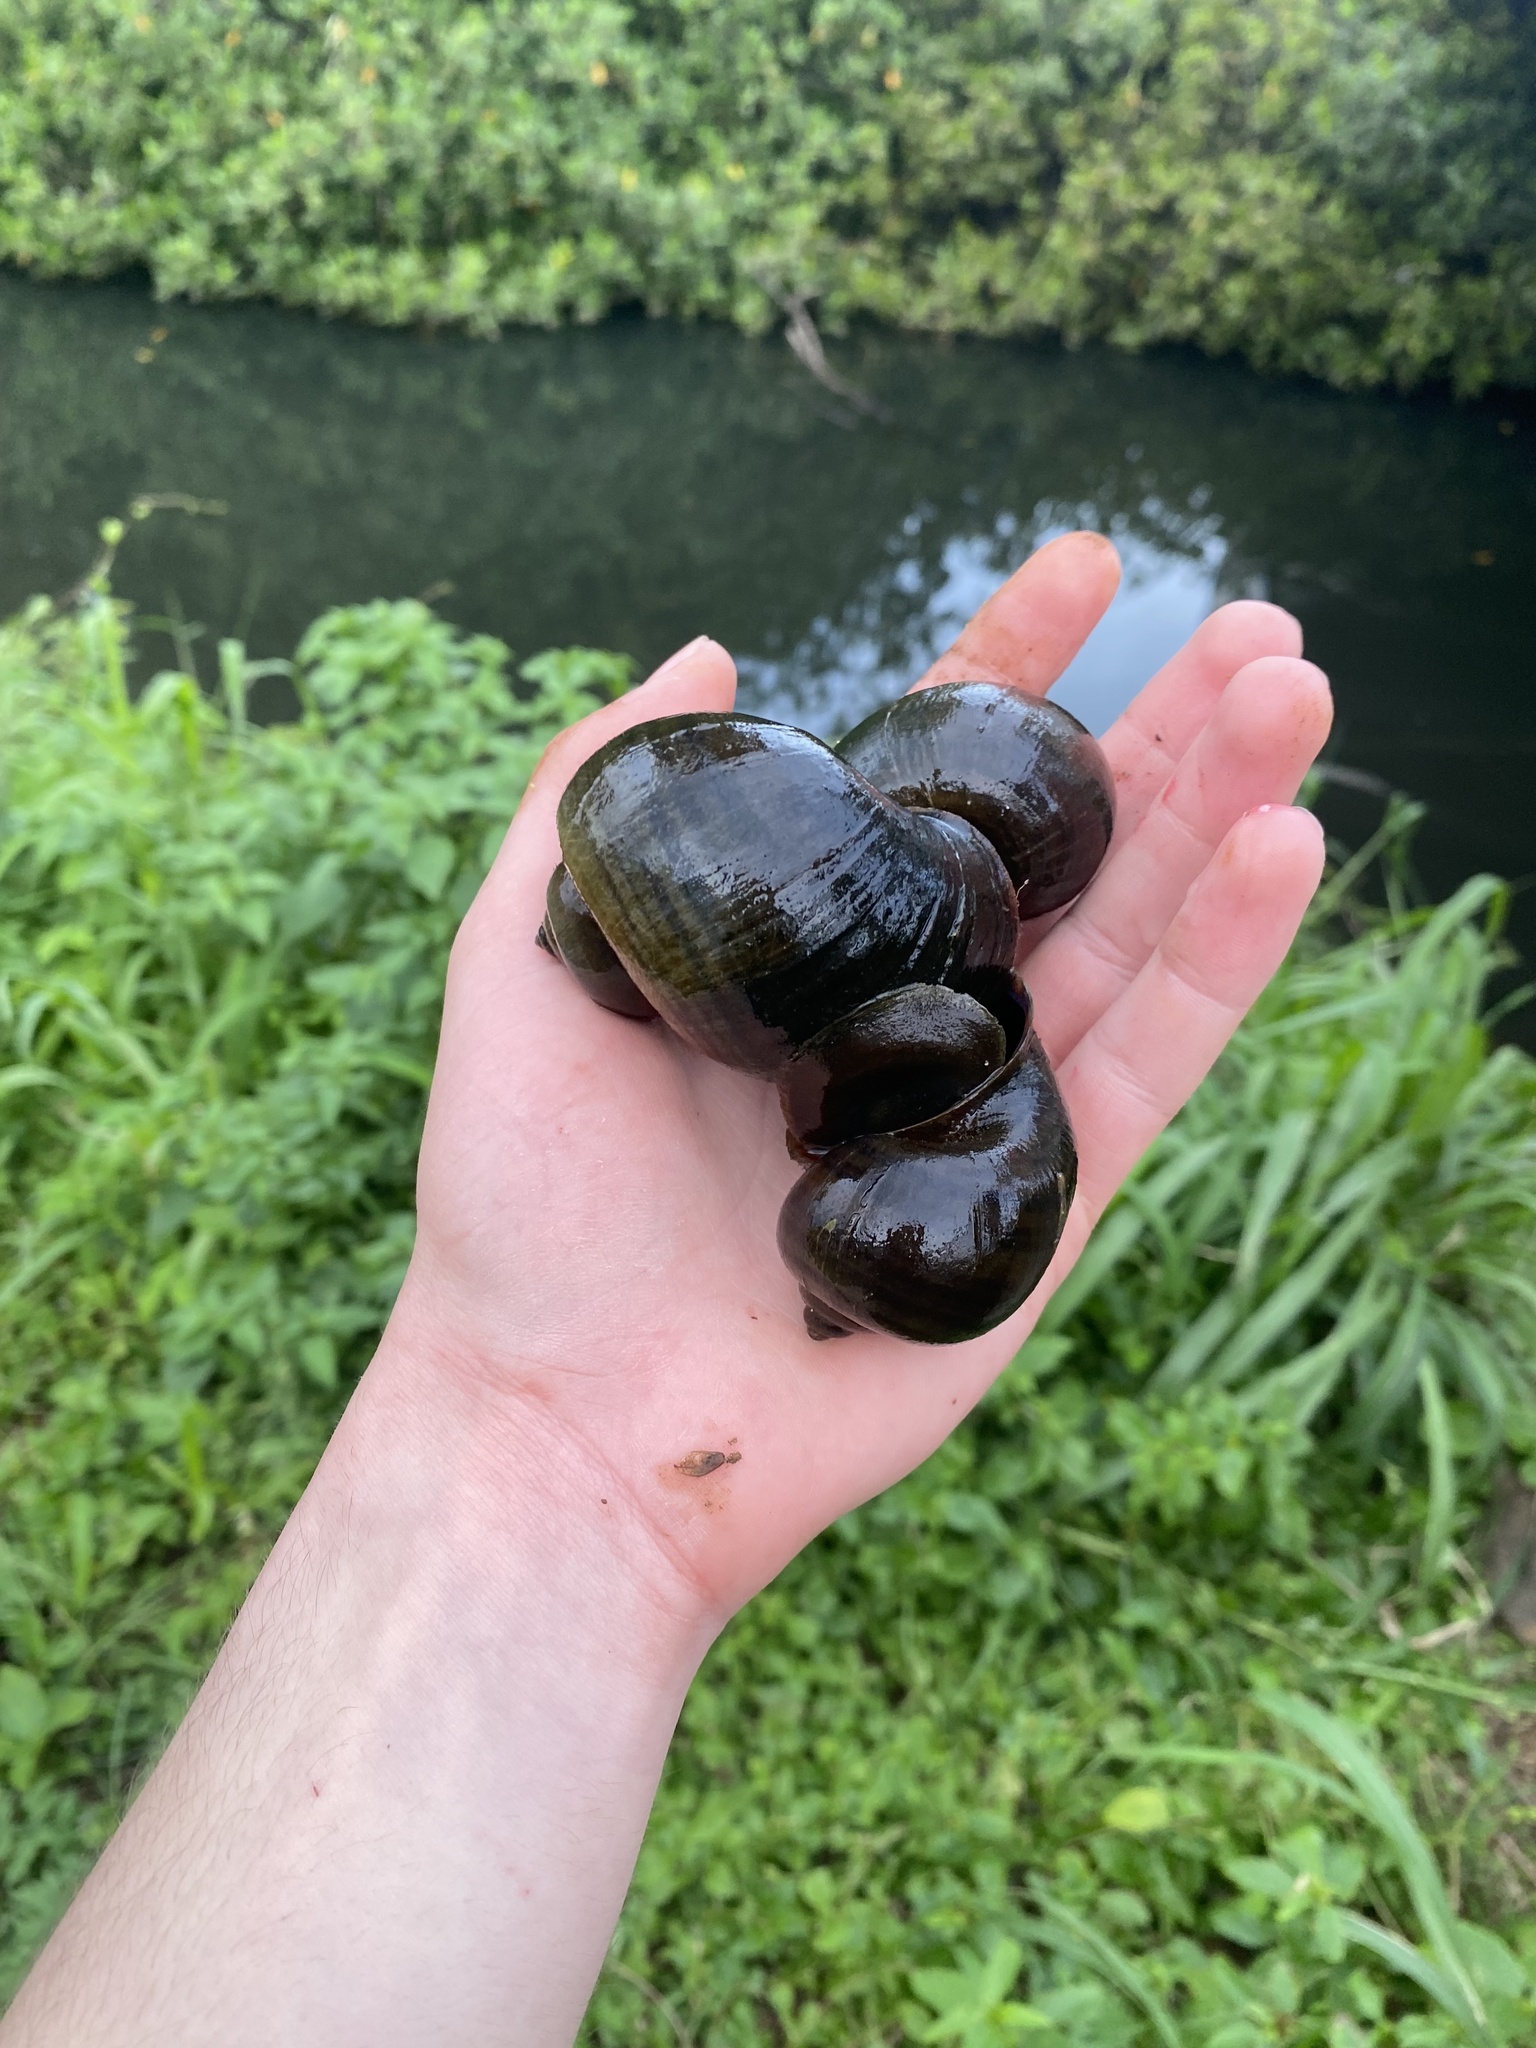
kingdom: Animalia
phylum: Mollusca
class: Gastropoda
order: Architaenioglossa
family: Ampullariidae
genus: Pomacea
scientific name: Pomacea canaliculata
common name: Channeled applesnail
